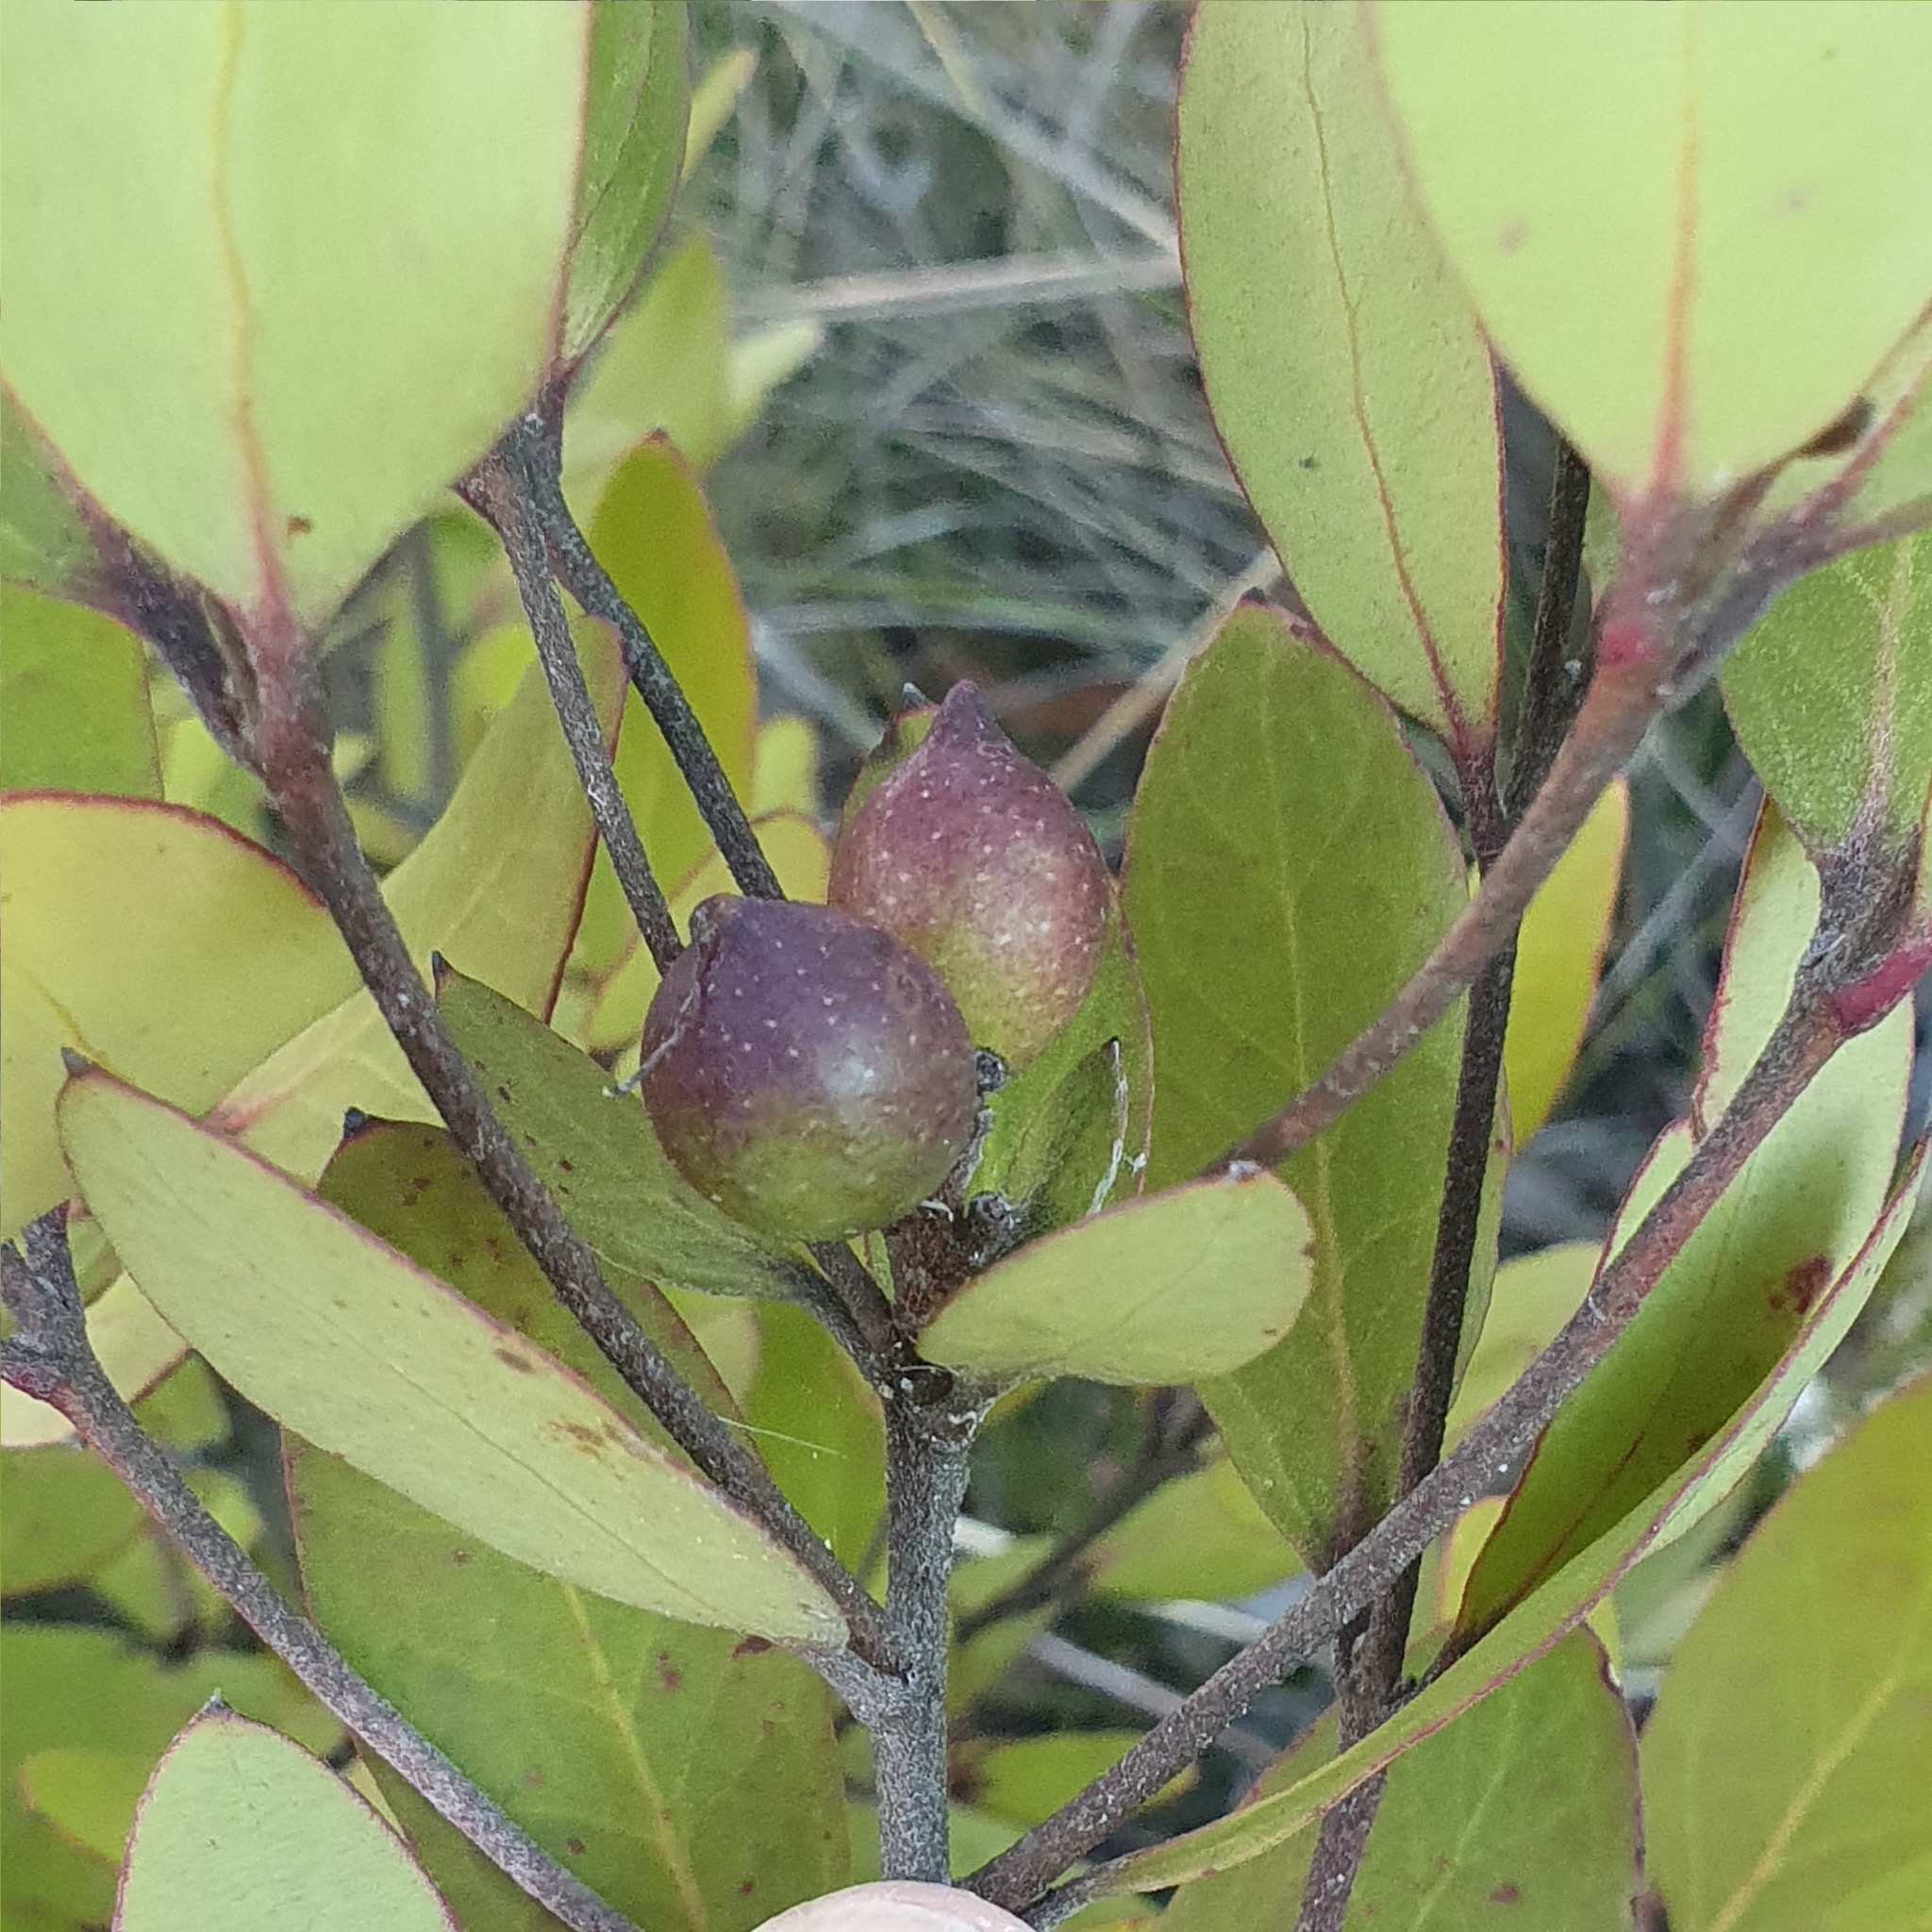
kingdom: Plantae
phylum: Tracheophyta
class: Magnoliopsida
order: Proteales
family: Proteaceae
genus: Persoonia
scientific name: Persoonia laurina
